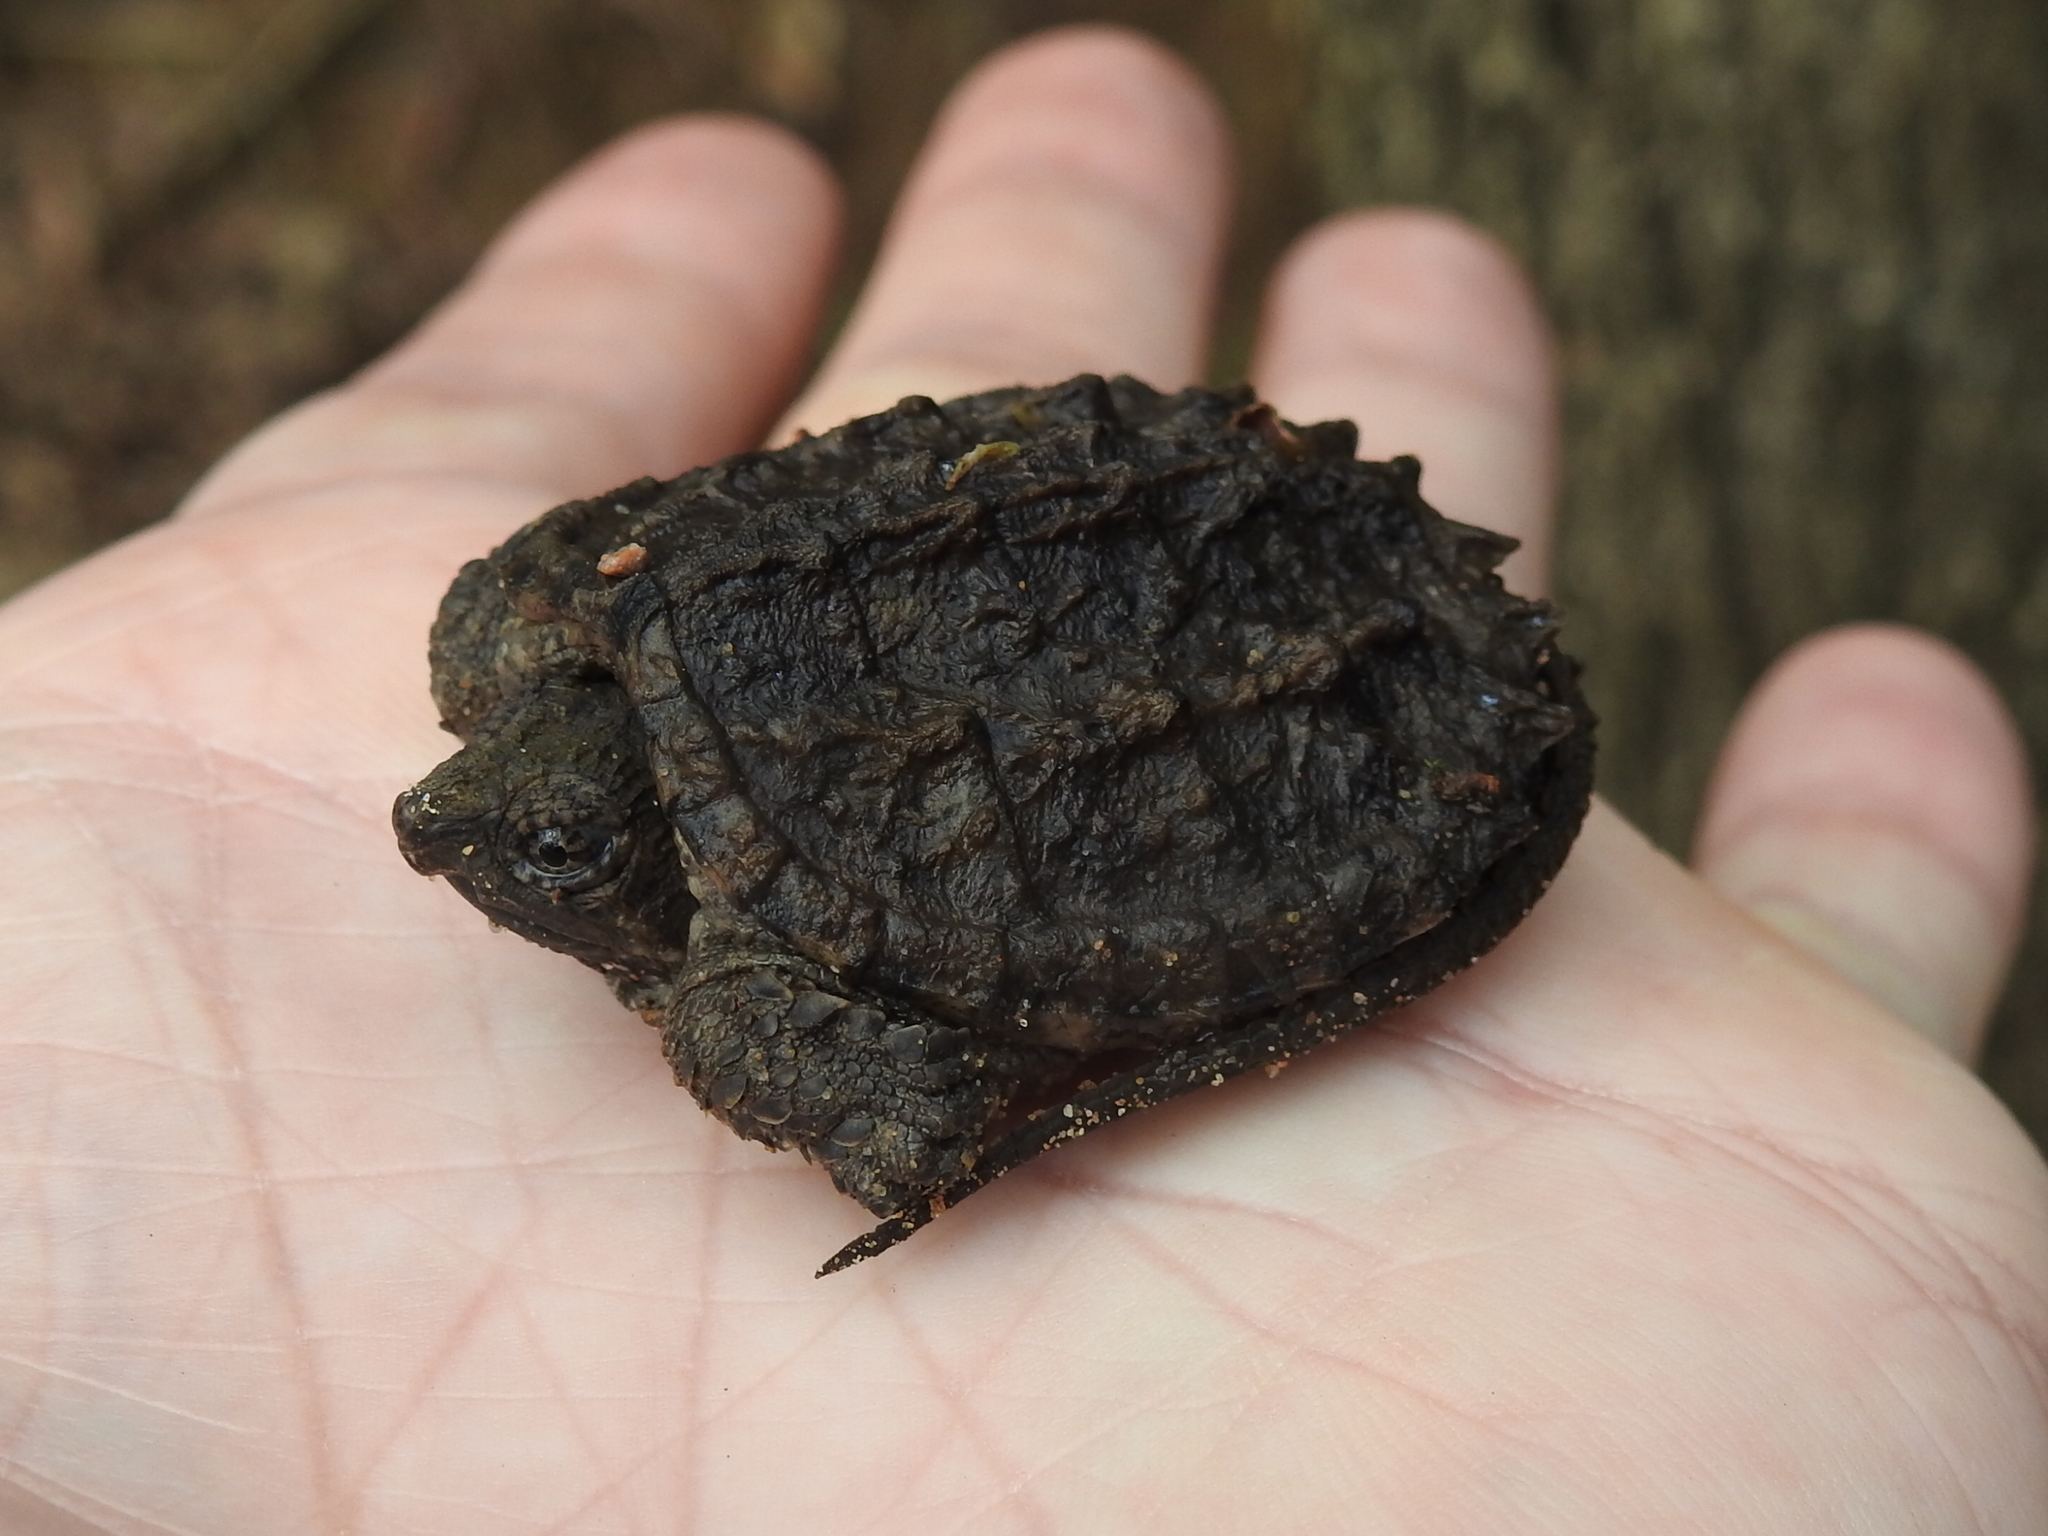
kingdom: Animalia
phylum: Chordata
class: Testudines
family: Chelydridae
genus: Chelydra
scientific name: Chelydra serpentina
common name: Common snapping turtle
